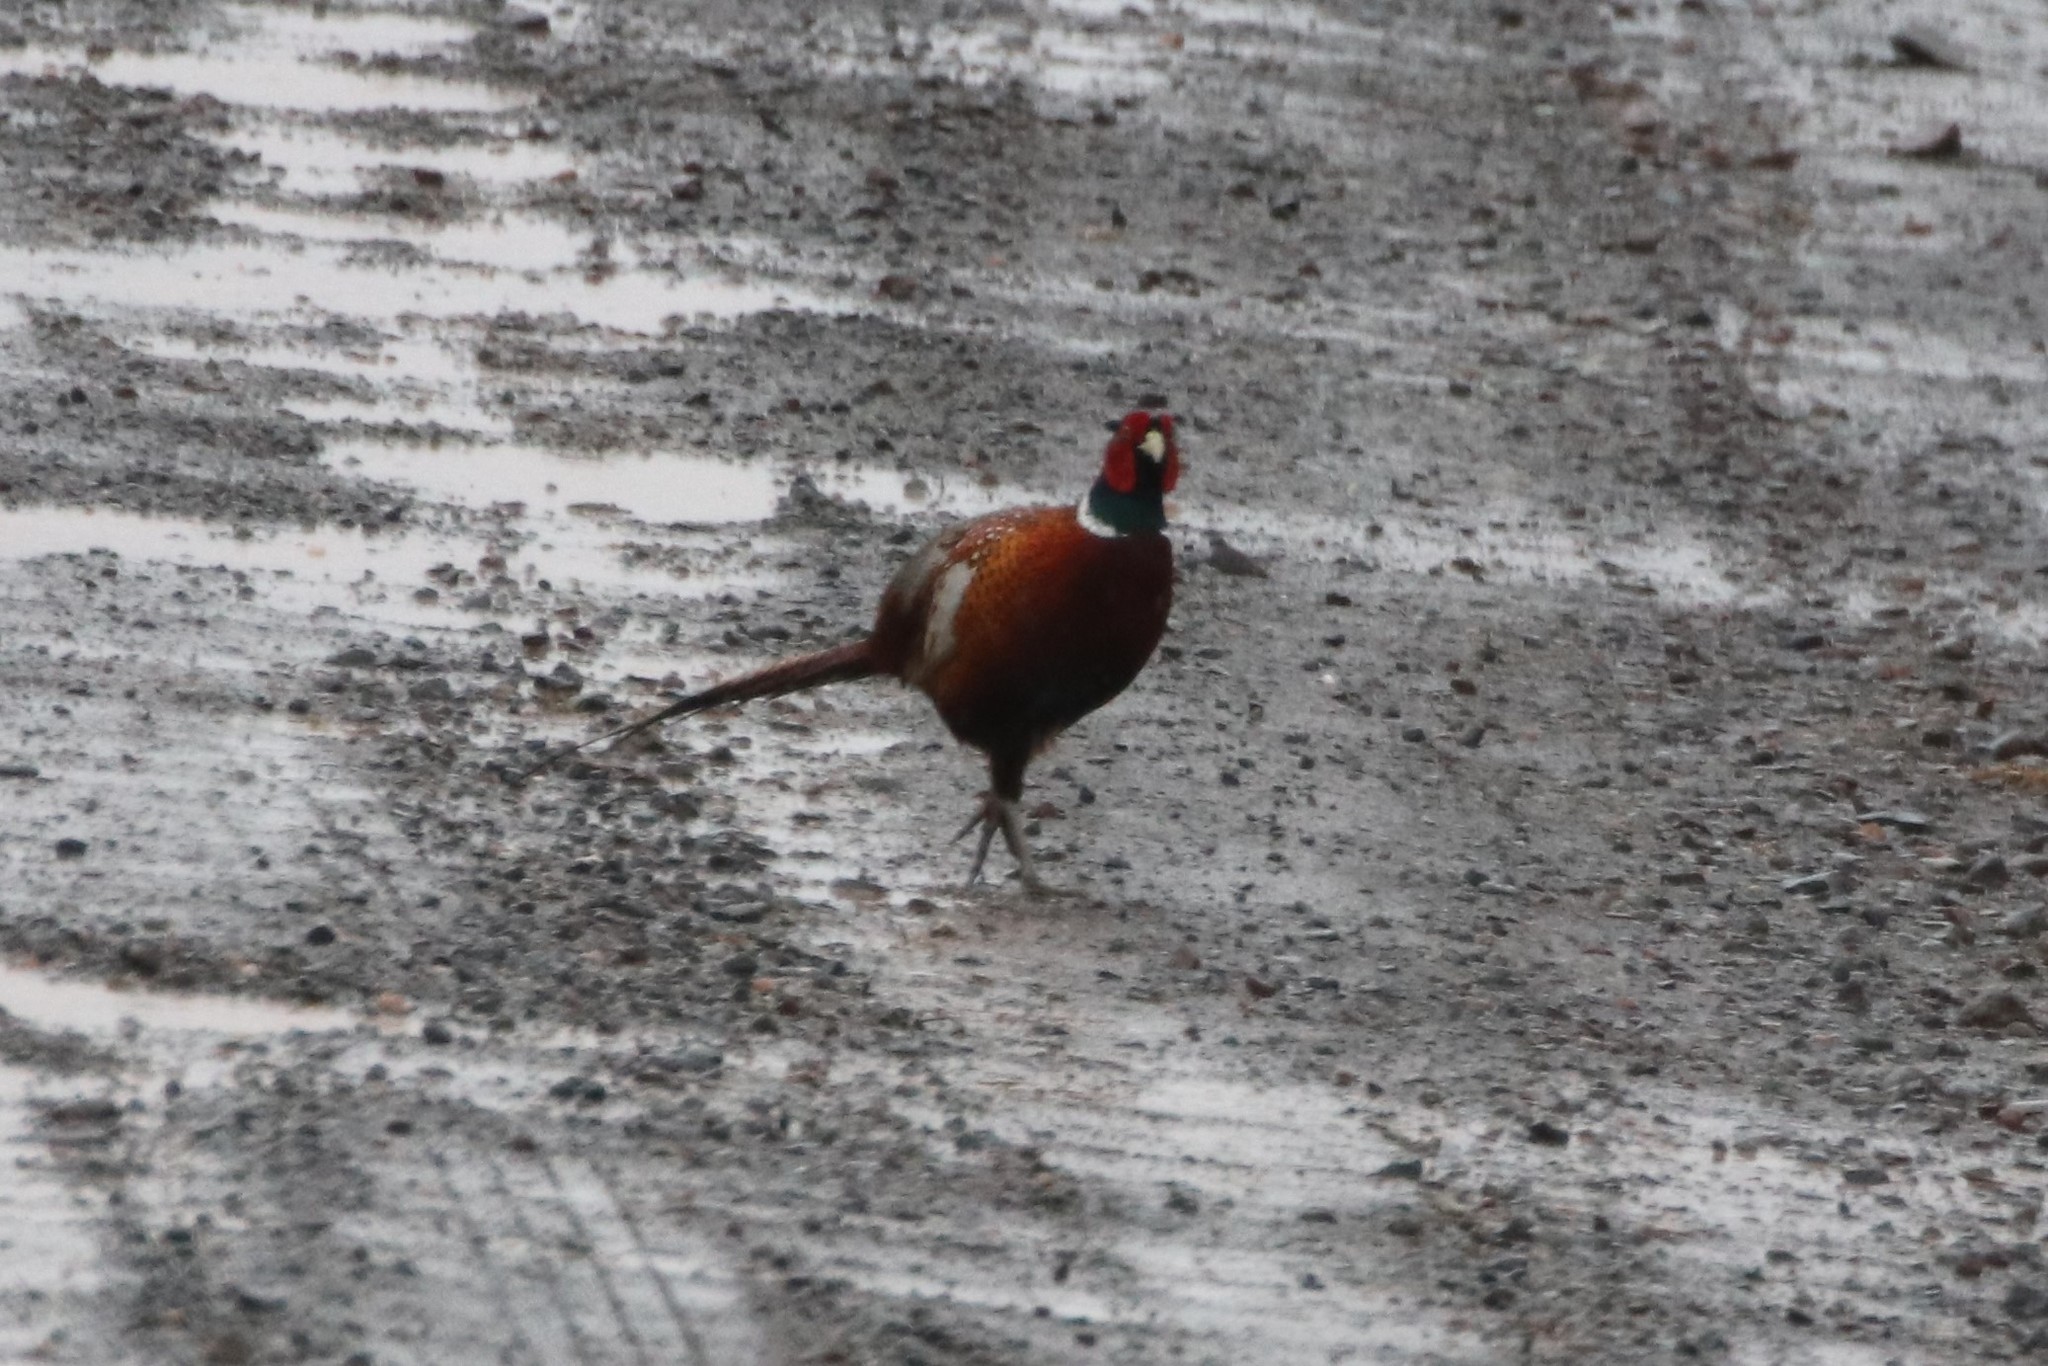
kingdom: Animalia
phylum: Chordata
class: Aves
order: Galliformes
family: Phasianidae
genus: Phasianus
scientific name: Phasianus colchicus
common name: Common pheasant
